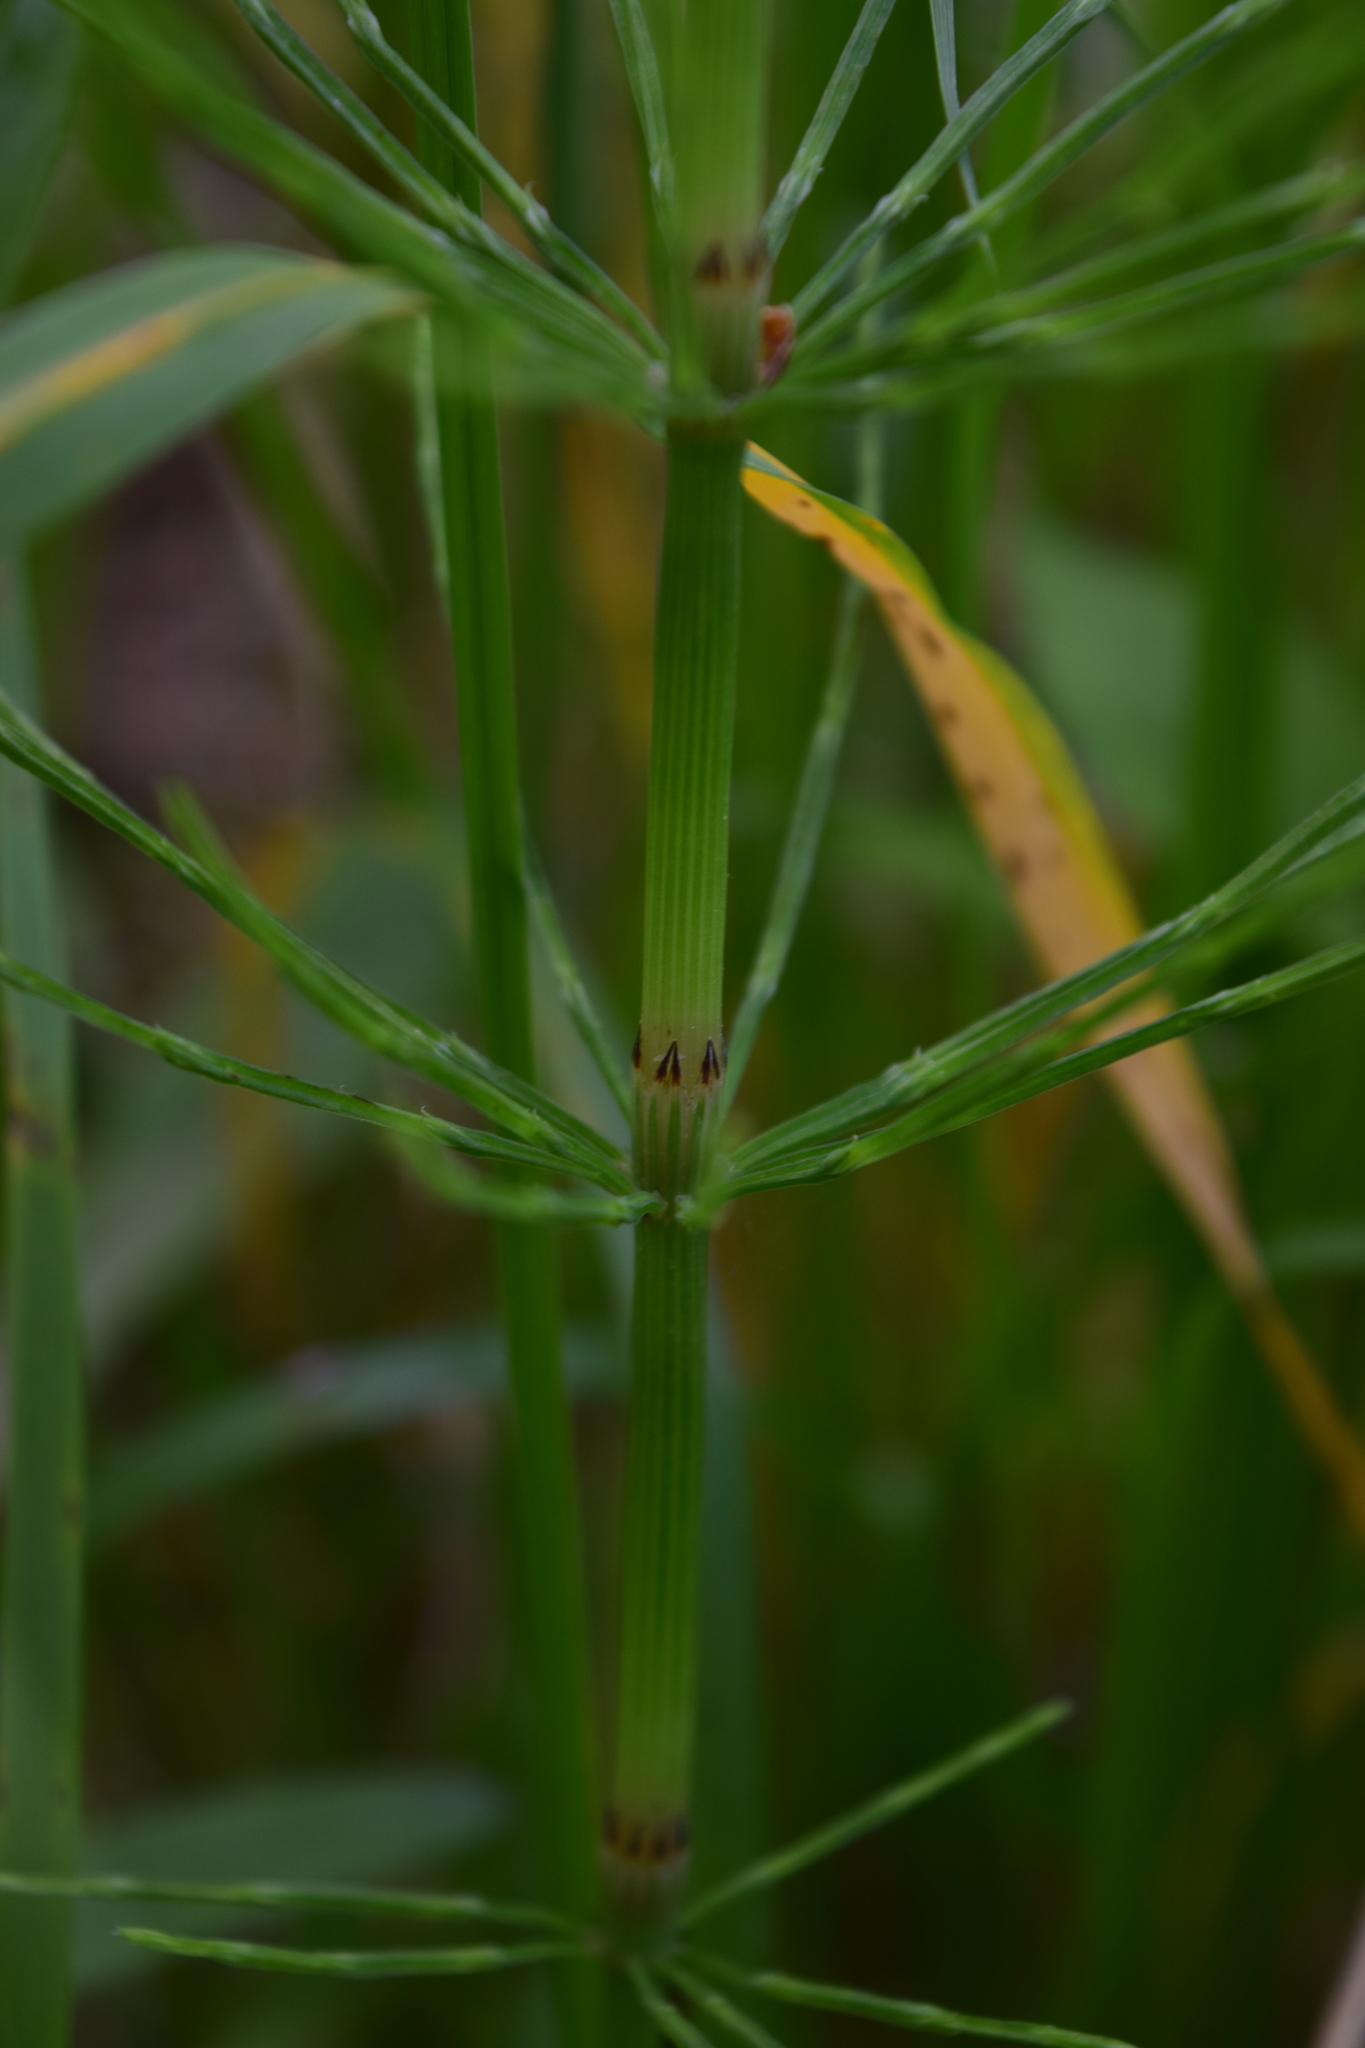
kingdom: Plantae
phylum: Tracheophyta
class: Polypodiopsida
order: Equisetales
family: Equisetaceae
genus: Equisetum
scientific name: Equisetum arvense
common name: Field horsetail
